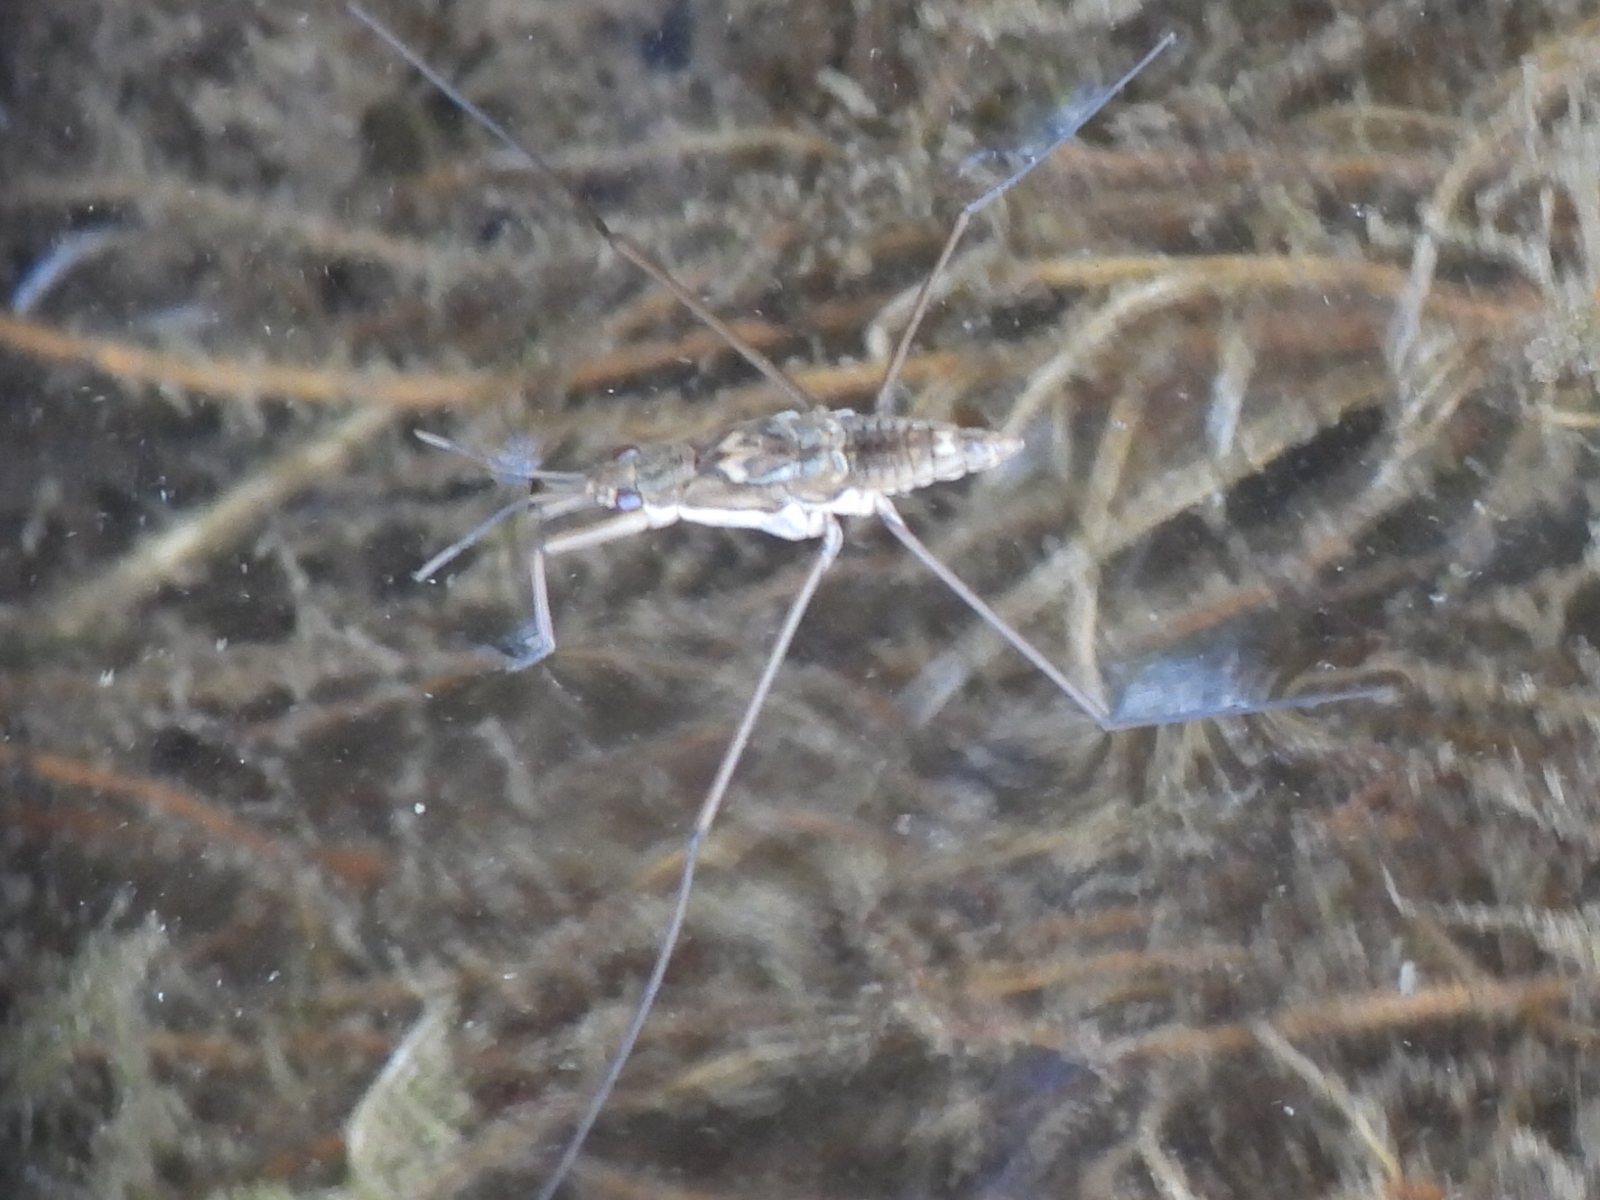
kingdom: Animalia
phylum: Arthropoda
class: Insecta
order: Hemiptera
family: Gerridae
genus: Aquarius
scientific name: Aquarius remigis
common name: Common water strider
